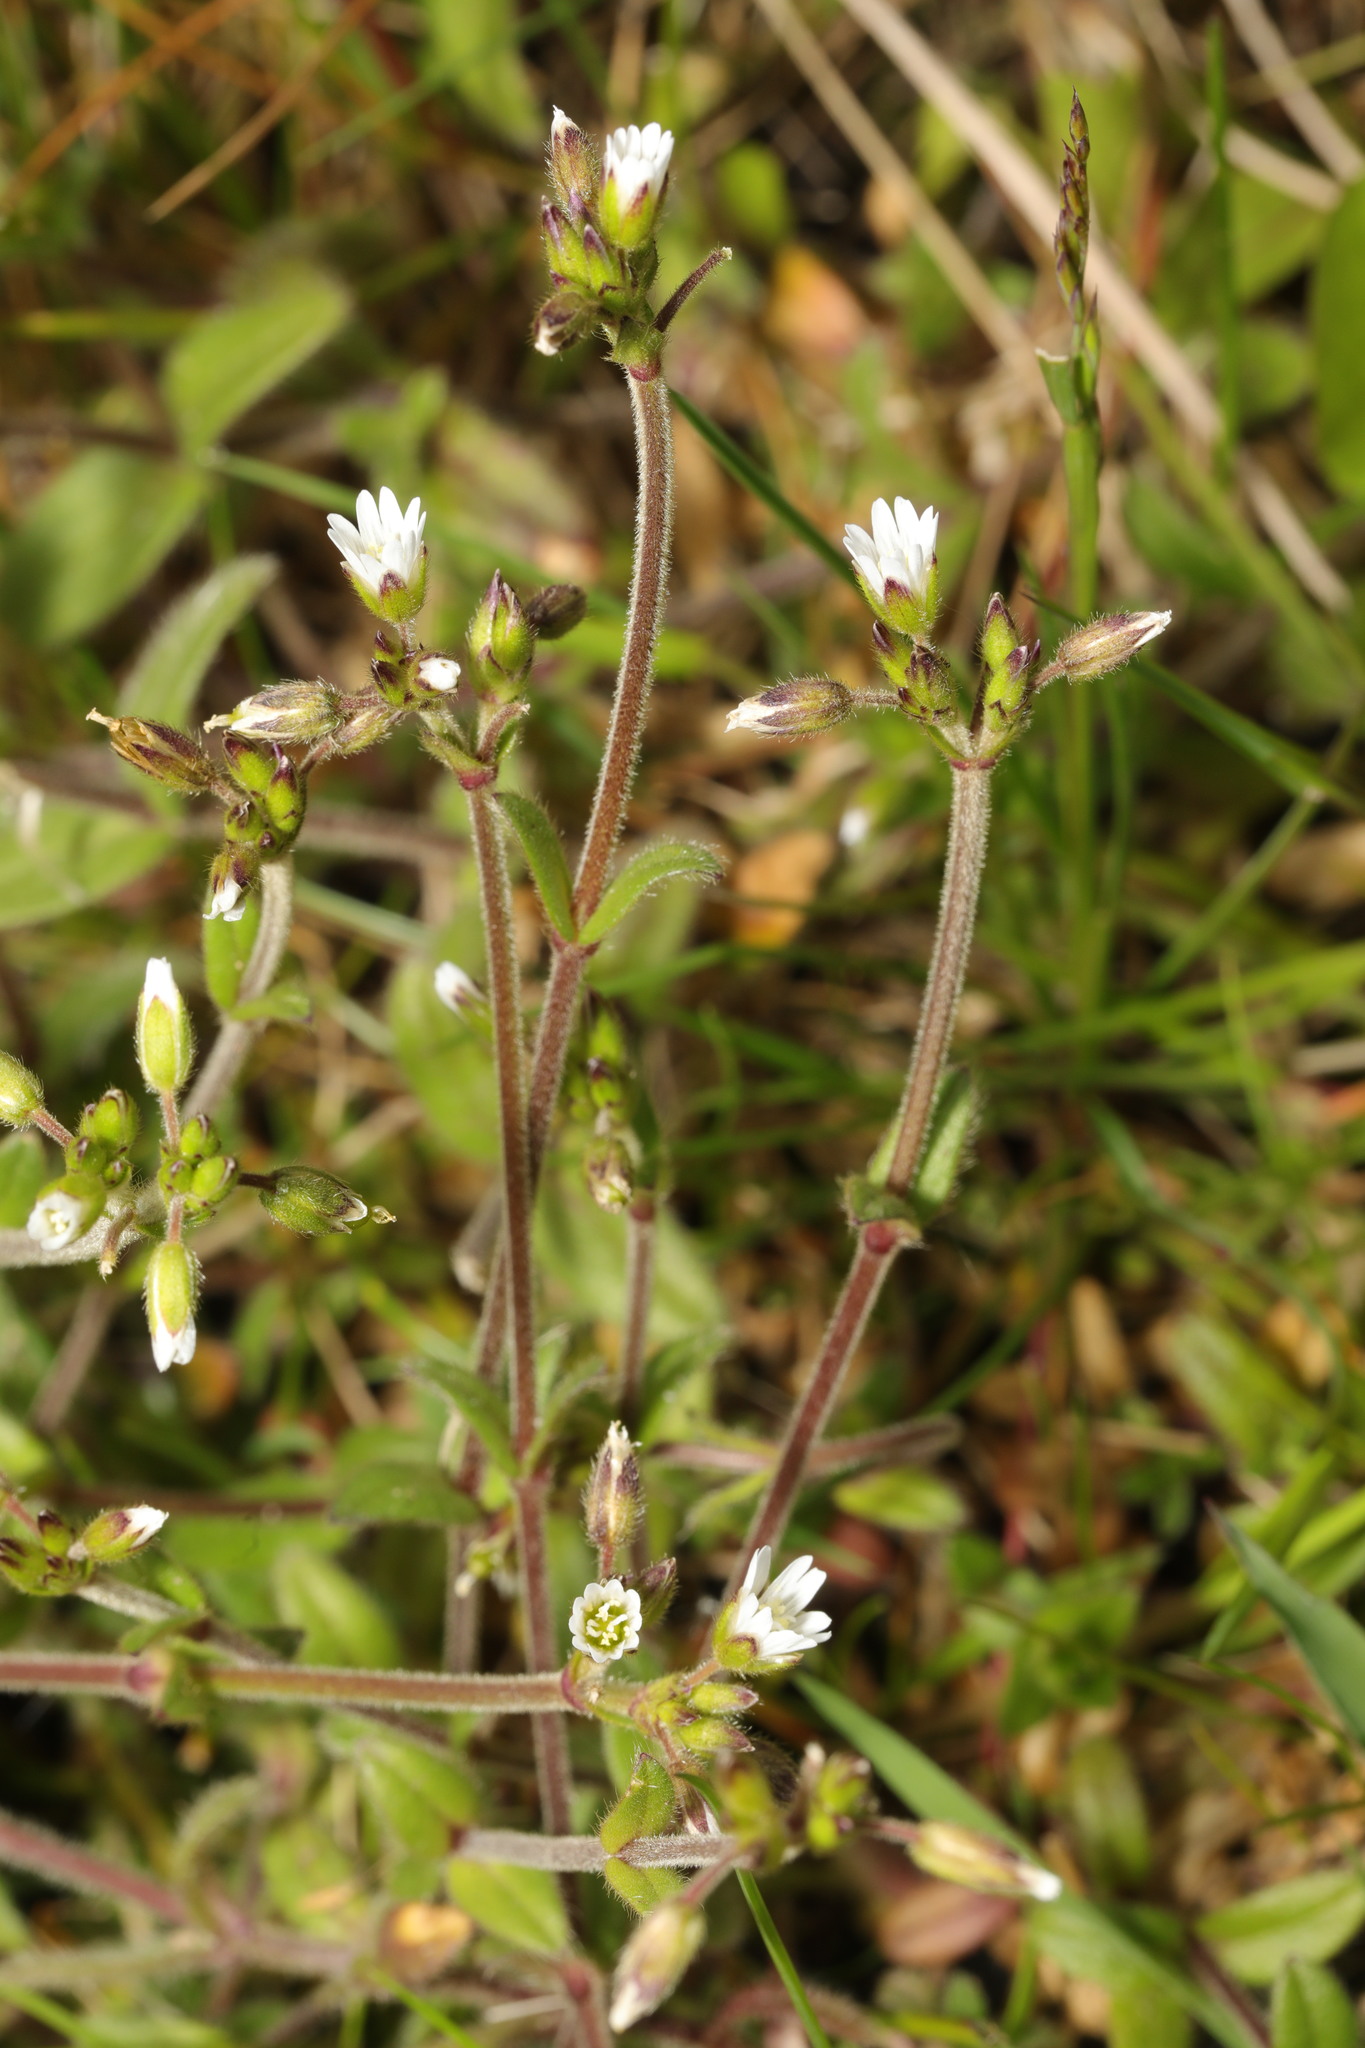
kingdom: Plantae
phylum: Tracheophyta
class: Magnoliopsida
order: Caryophyllales
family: Caryophyllaceae
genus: Cerastium
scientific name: Cerastium fontanum
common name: Common mouse-ear
